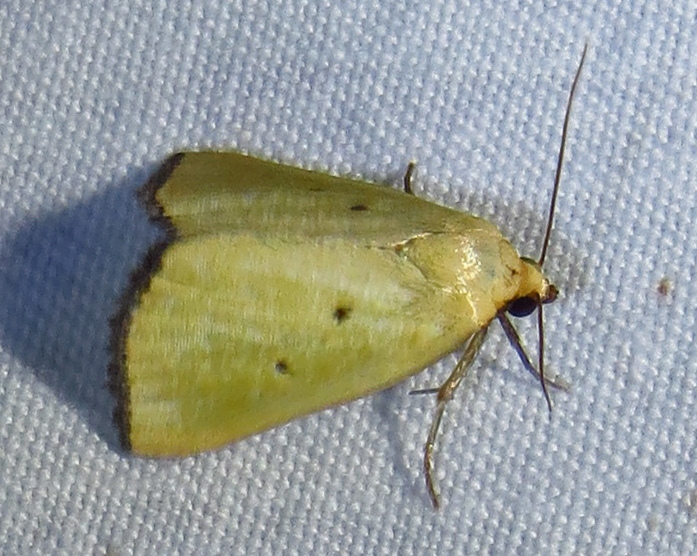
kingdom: Animalia
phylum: Arthropoda
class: Insecta
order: Lepidoptera
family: Noctuidae
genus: Marimatha
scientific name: Marimatha nigrofimbria
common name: Black-bordered lemon moth
